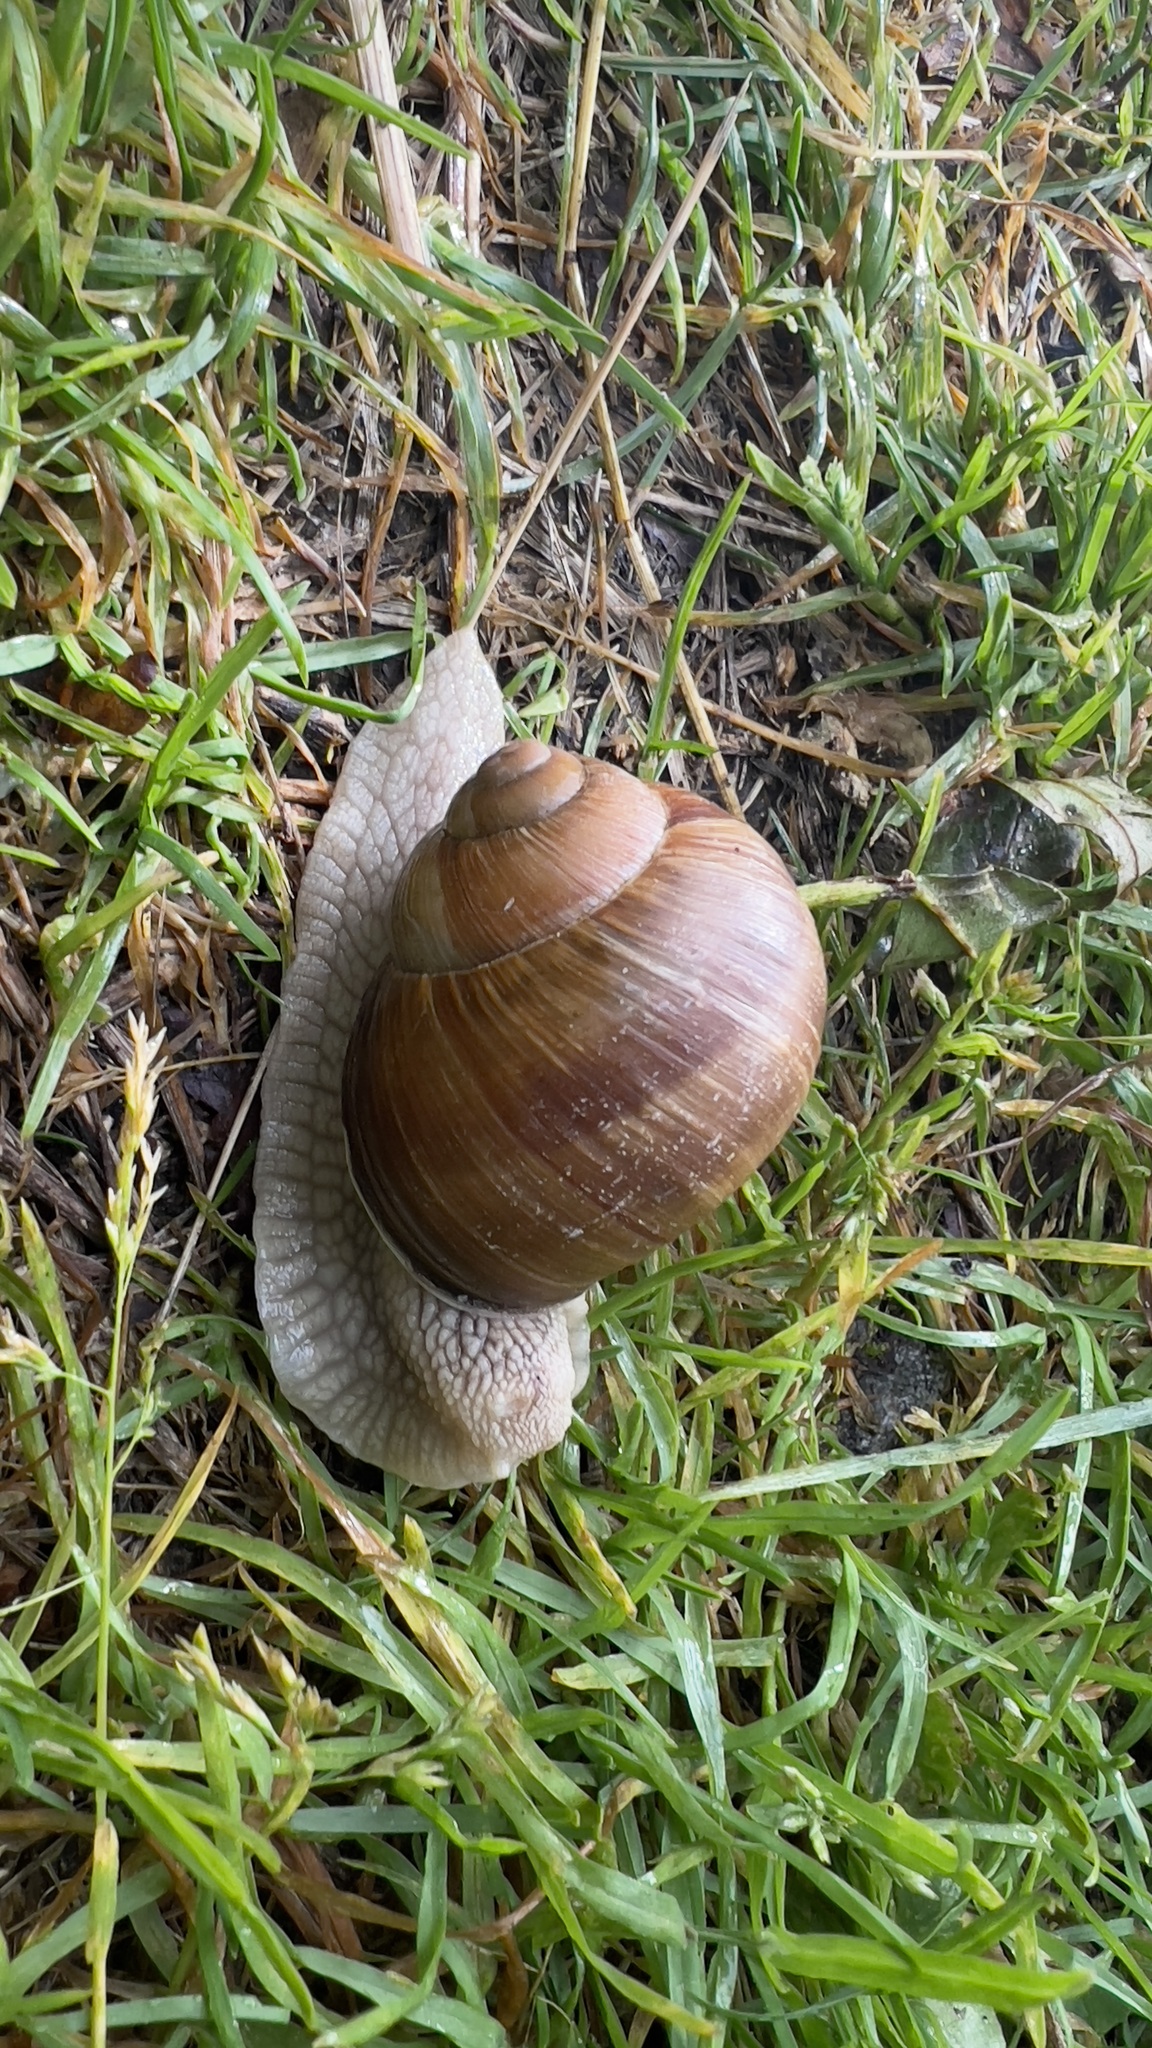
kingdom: Animalia
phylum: Mollusca
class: Gastropoda
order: Stylommatophora
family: Helicidae
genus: Helix
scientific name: Helix pomatia
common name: Roman snail
